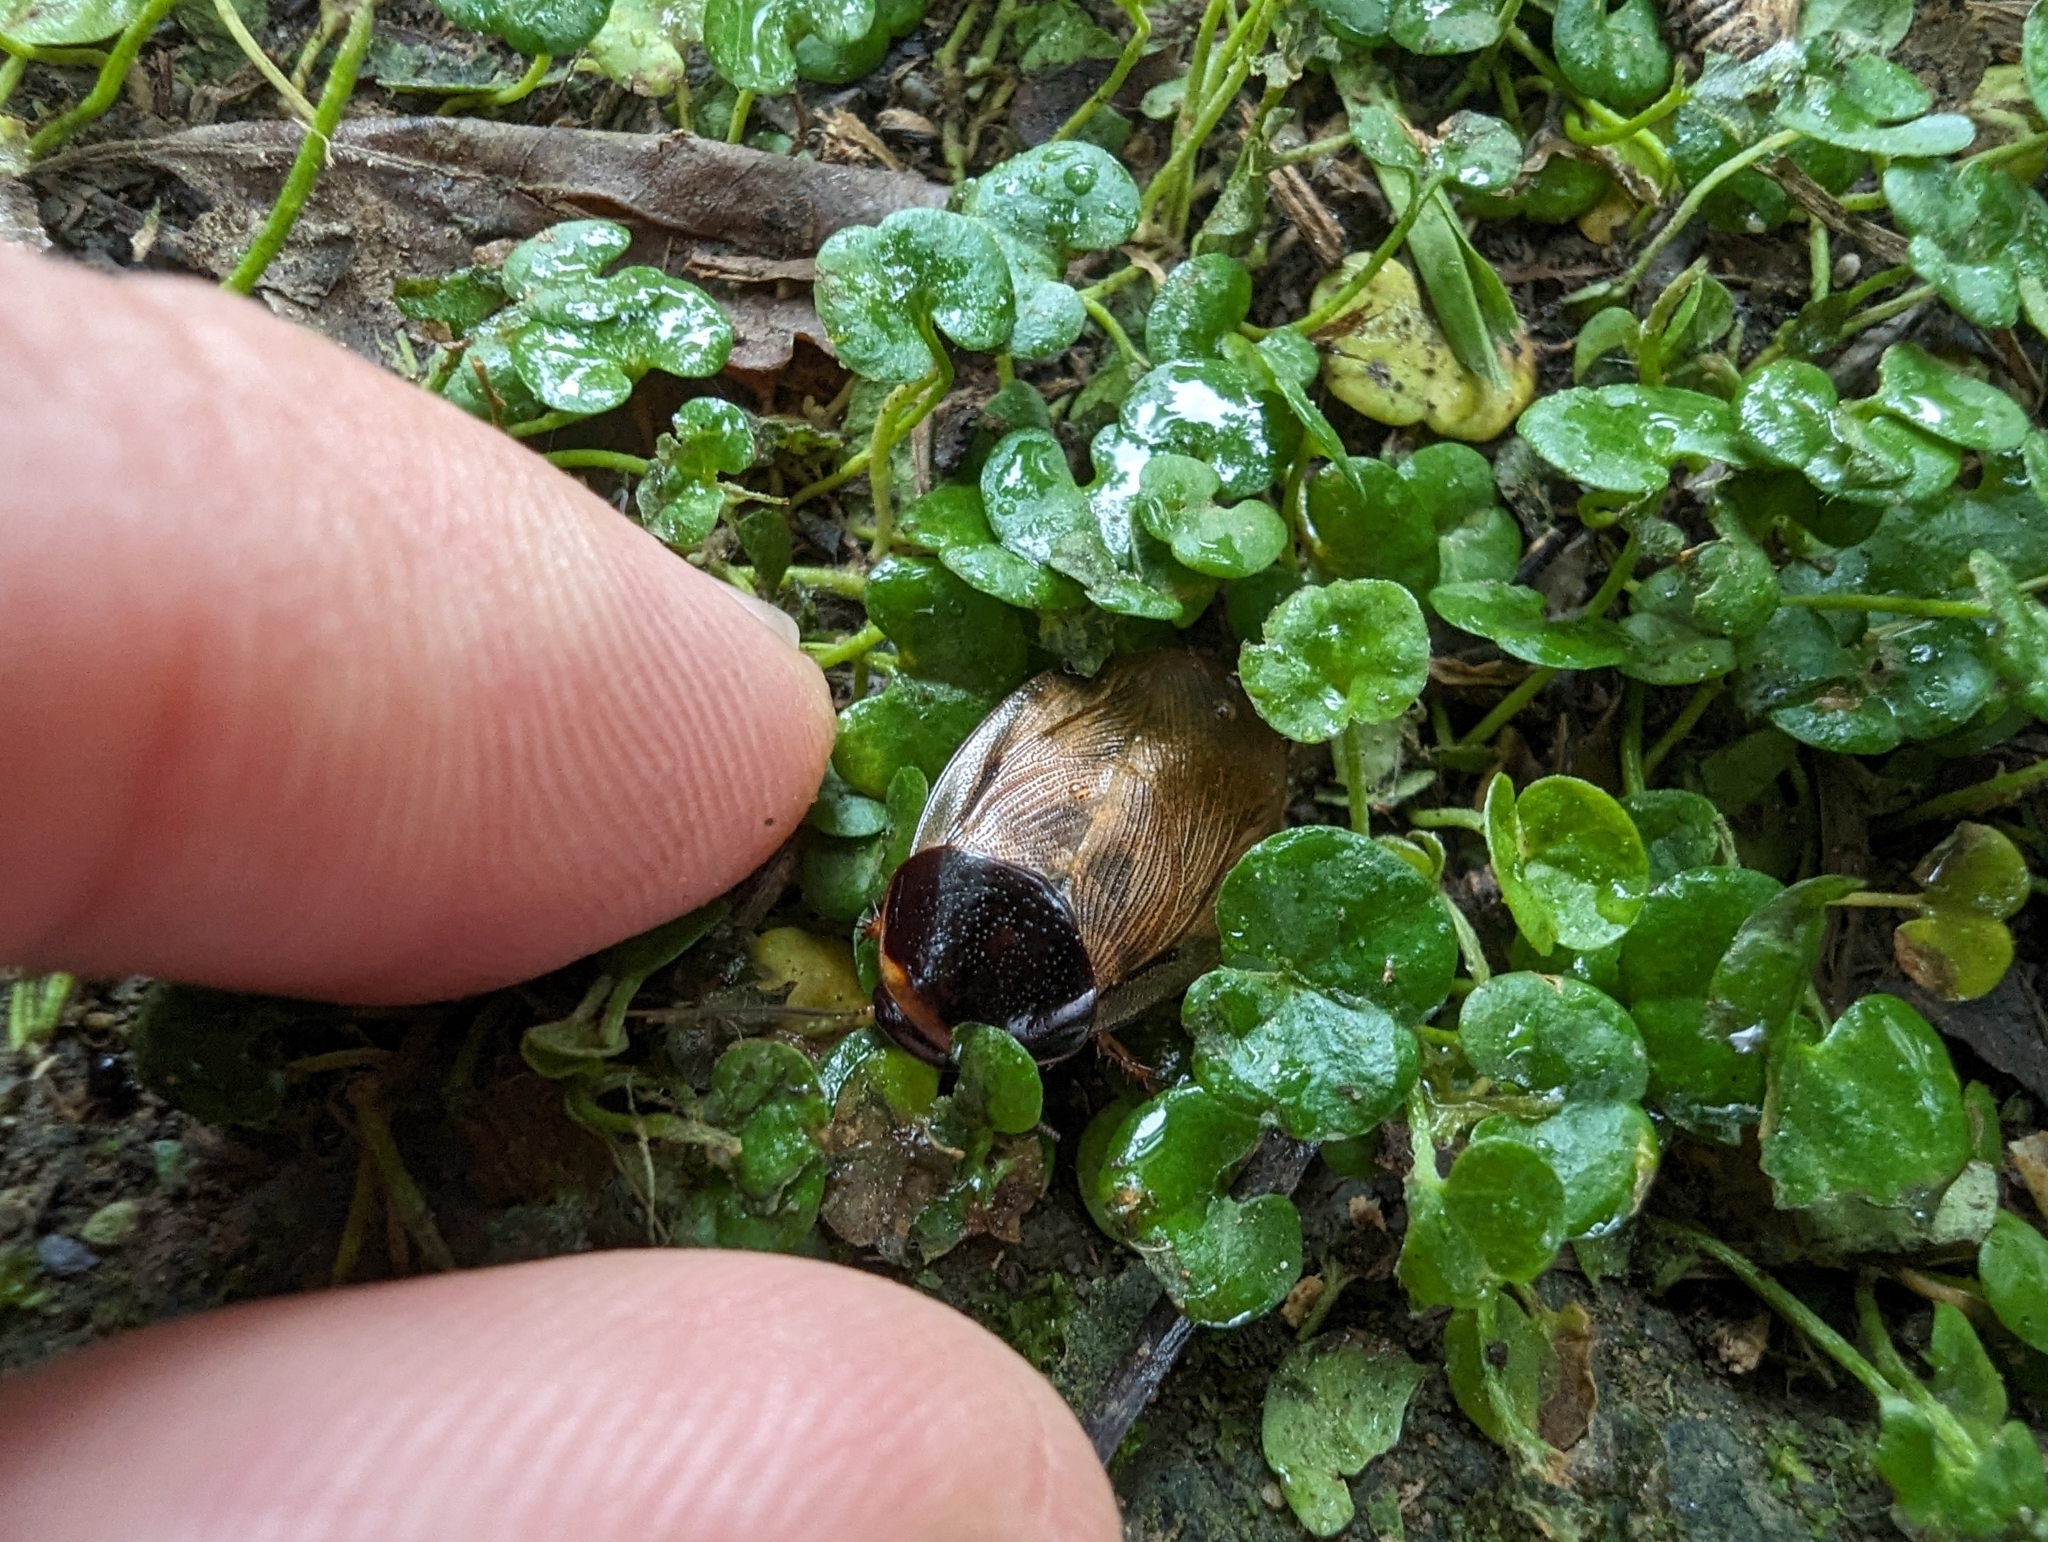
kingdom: Animalia
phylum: Arthropoda
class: Insecta
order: Blattodea
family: Blaberidae
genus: Pycnoscelus
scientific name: Pycnoscelus surinamensis
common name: Surinam cockroach
